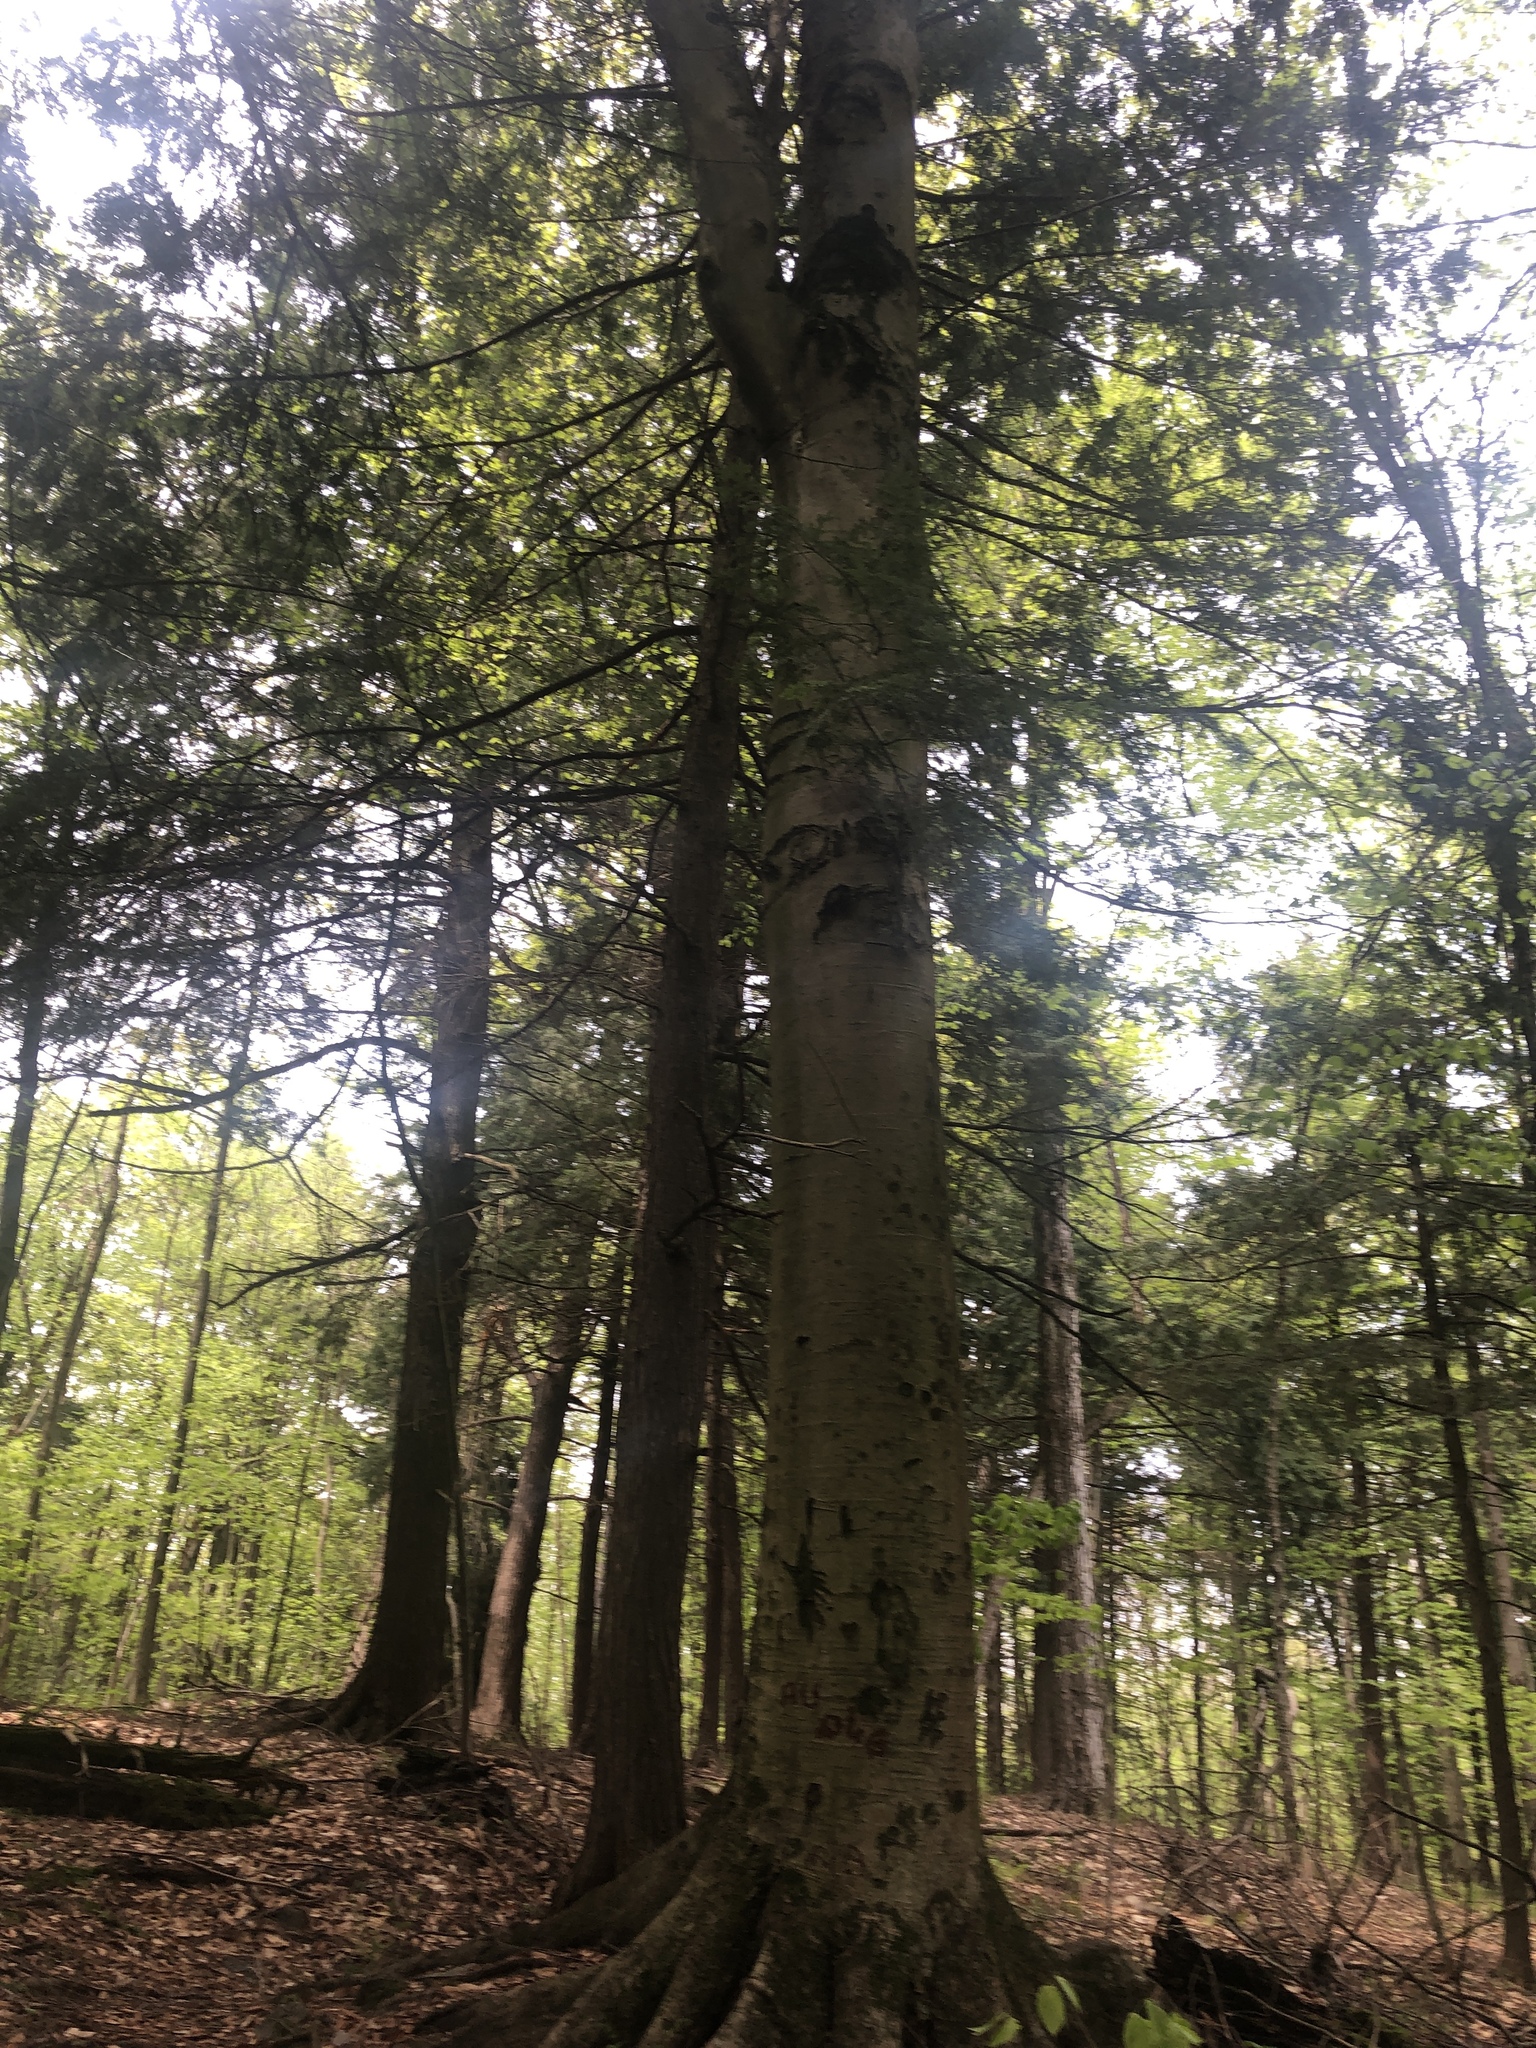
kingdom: Plantae
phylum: Tracheophyta
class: Magnoliopsida
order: Fagales
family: Fagaceae
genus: Fagus
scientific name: Fagus grandifolia
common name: American beech
